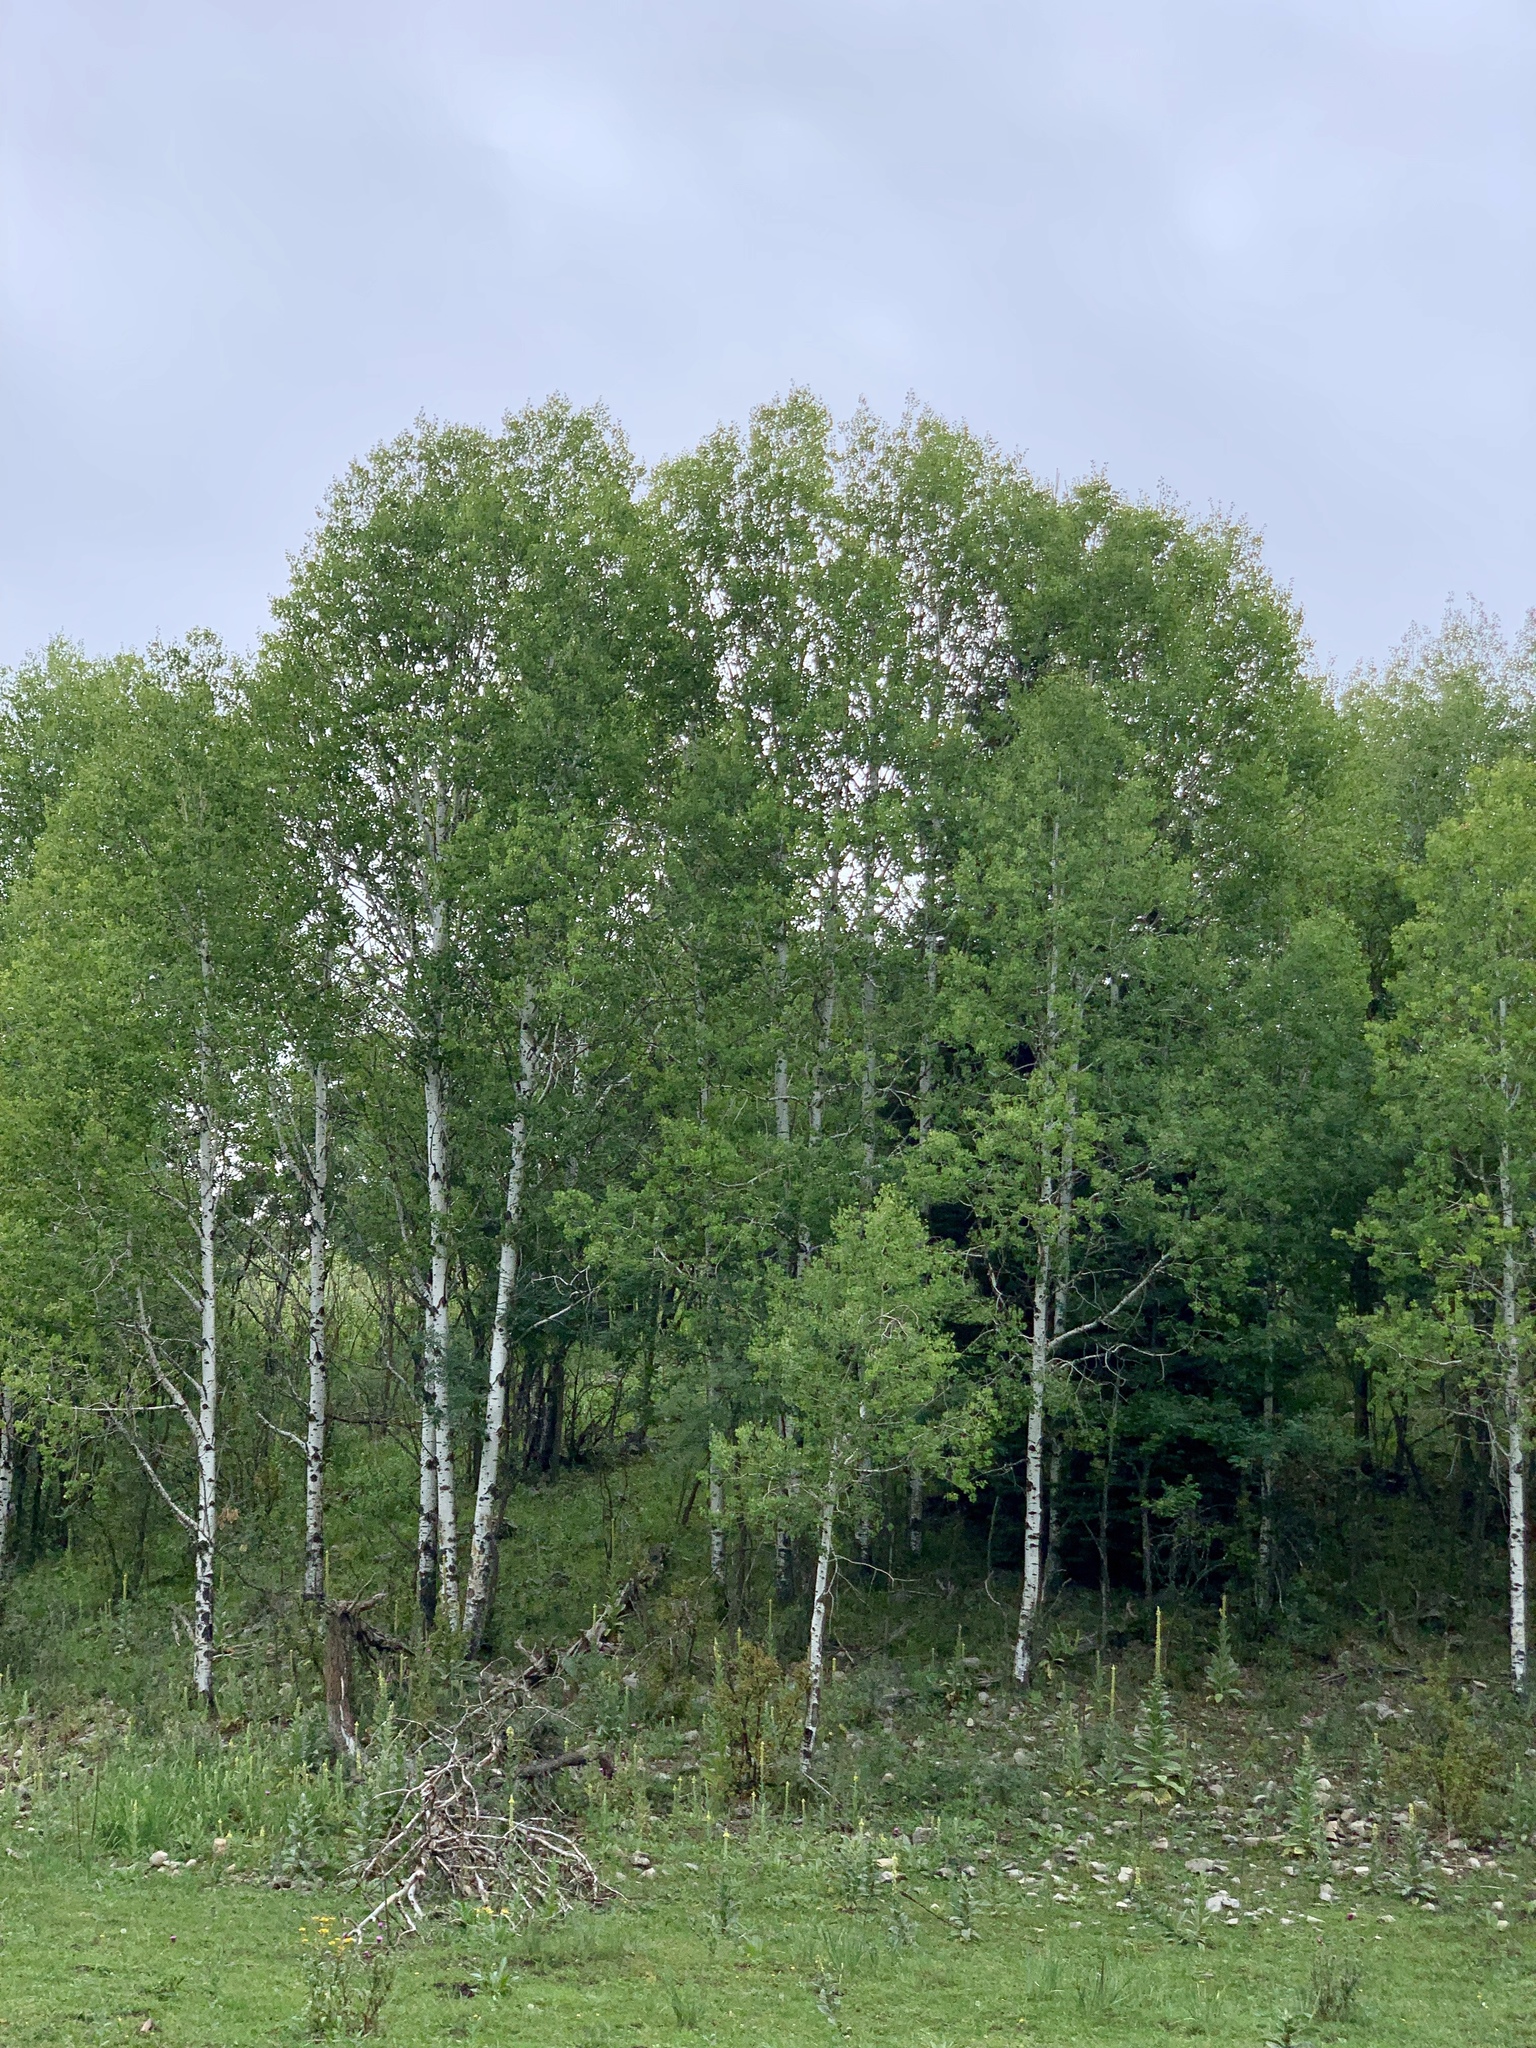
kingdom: Plantae
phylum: Tracheophyta
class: Magnoliopsida
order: Malpighiales
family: Salicaceae
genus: Populus
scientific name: Populus tremuloides
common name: Quaking aspen
